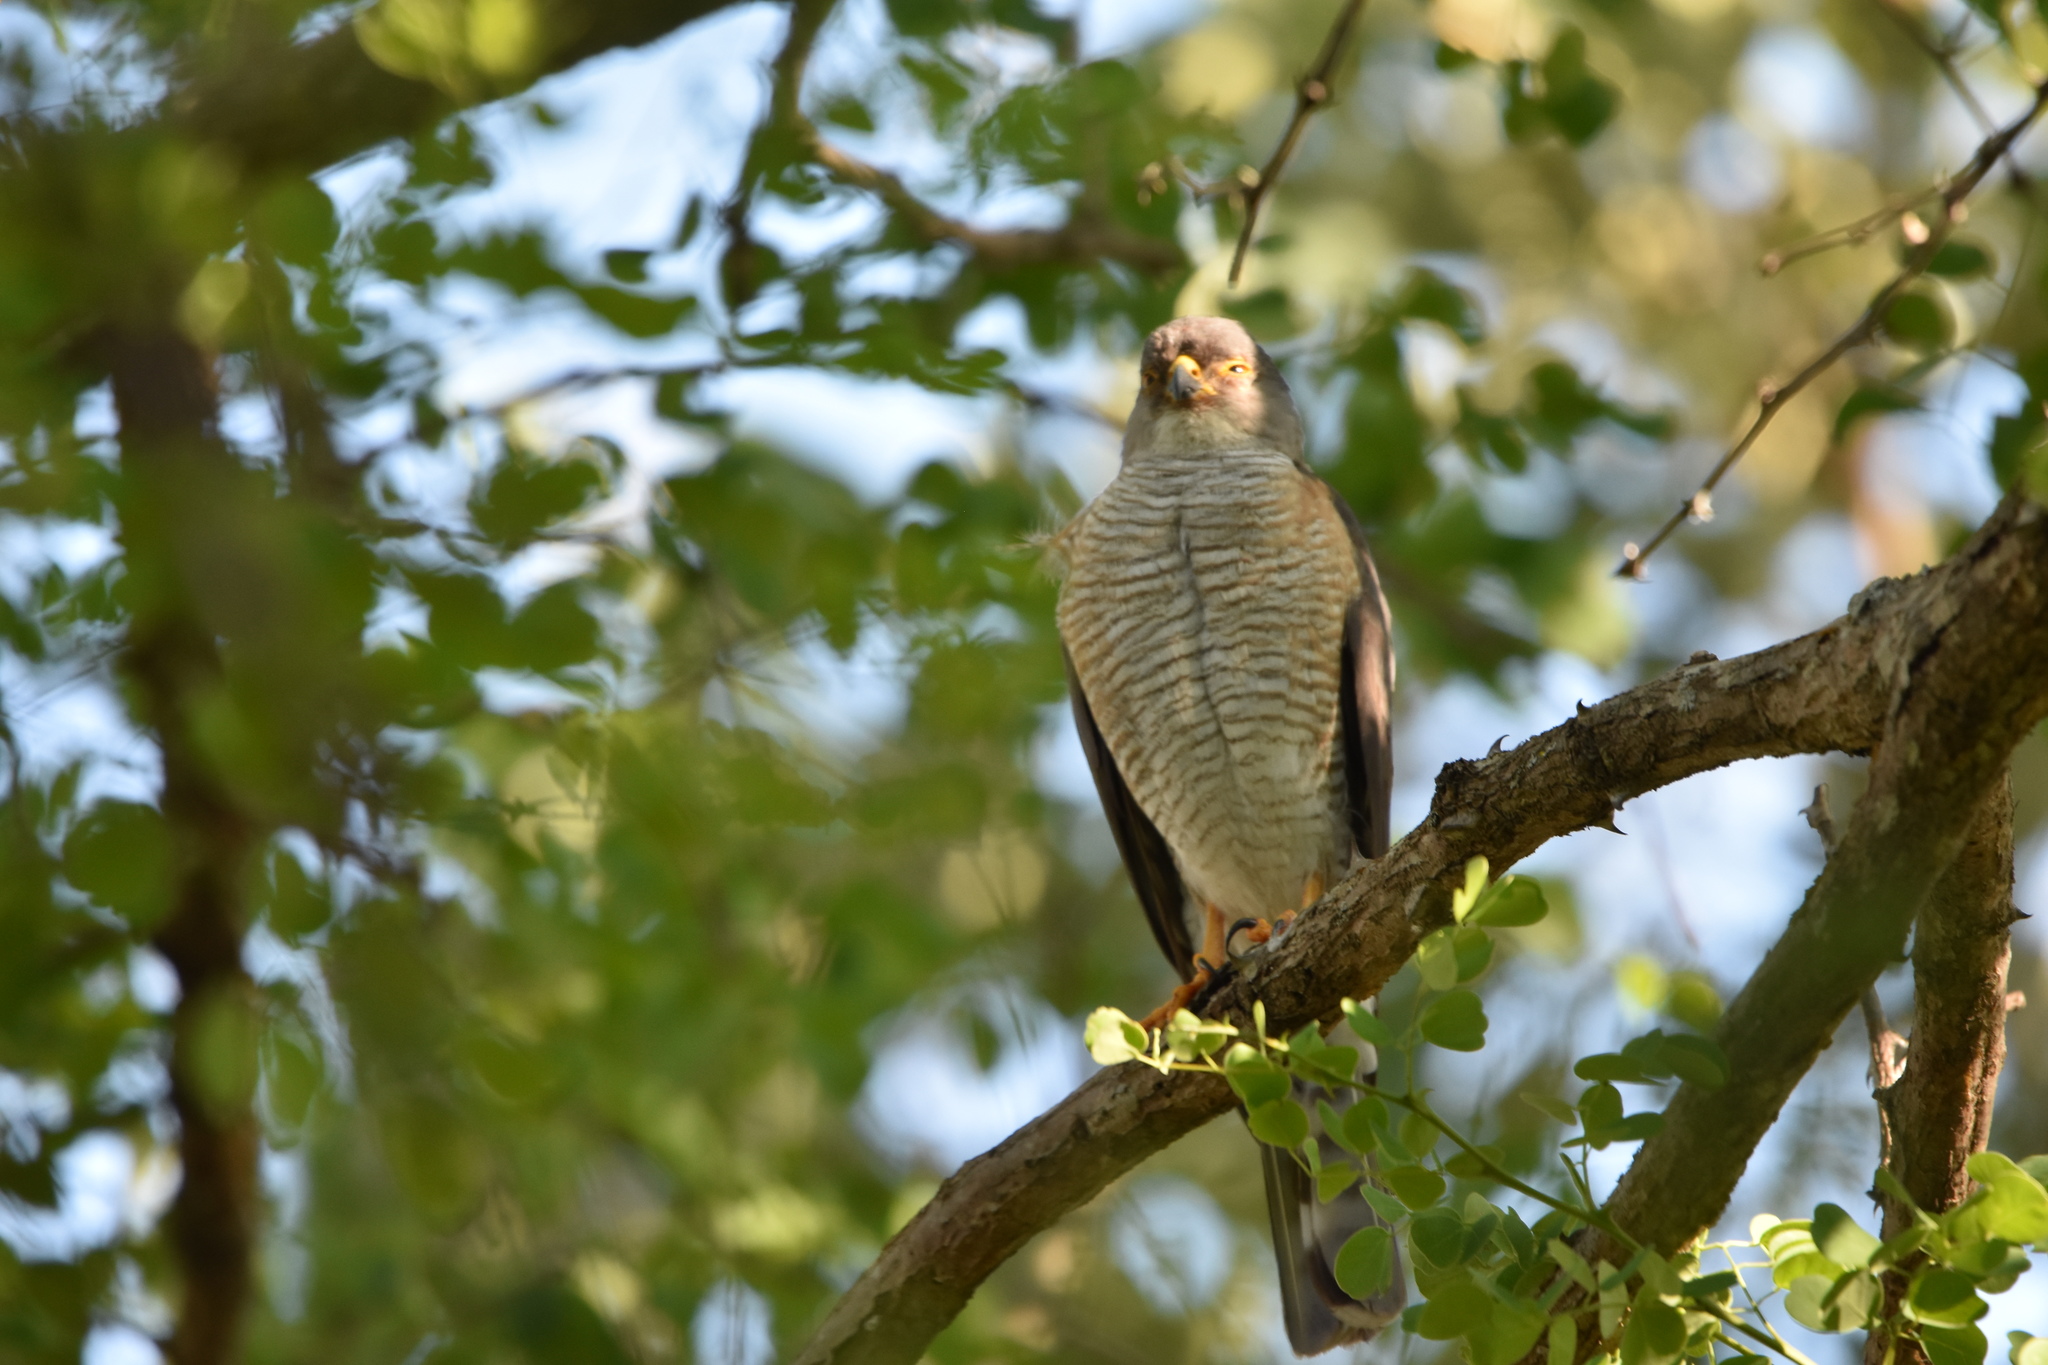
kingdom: Animalia
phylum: Chordata
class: Aves
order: Accipitriformes
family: Accipitridae
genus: Accipiter
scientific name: Accipiter minullus
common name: Little sparrowhawk
